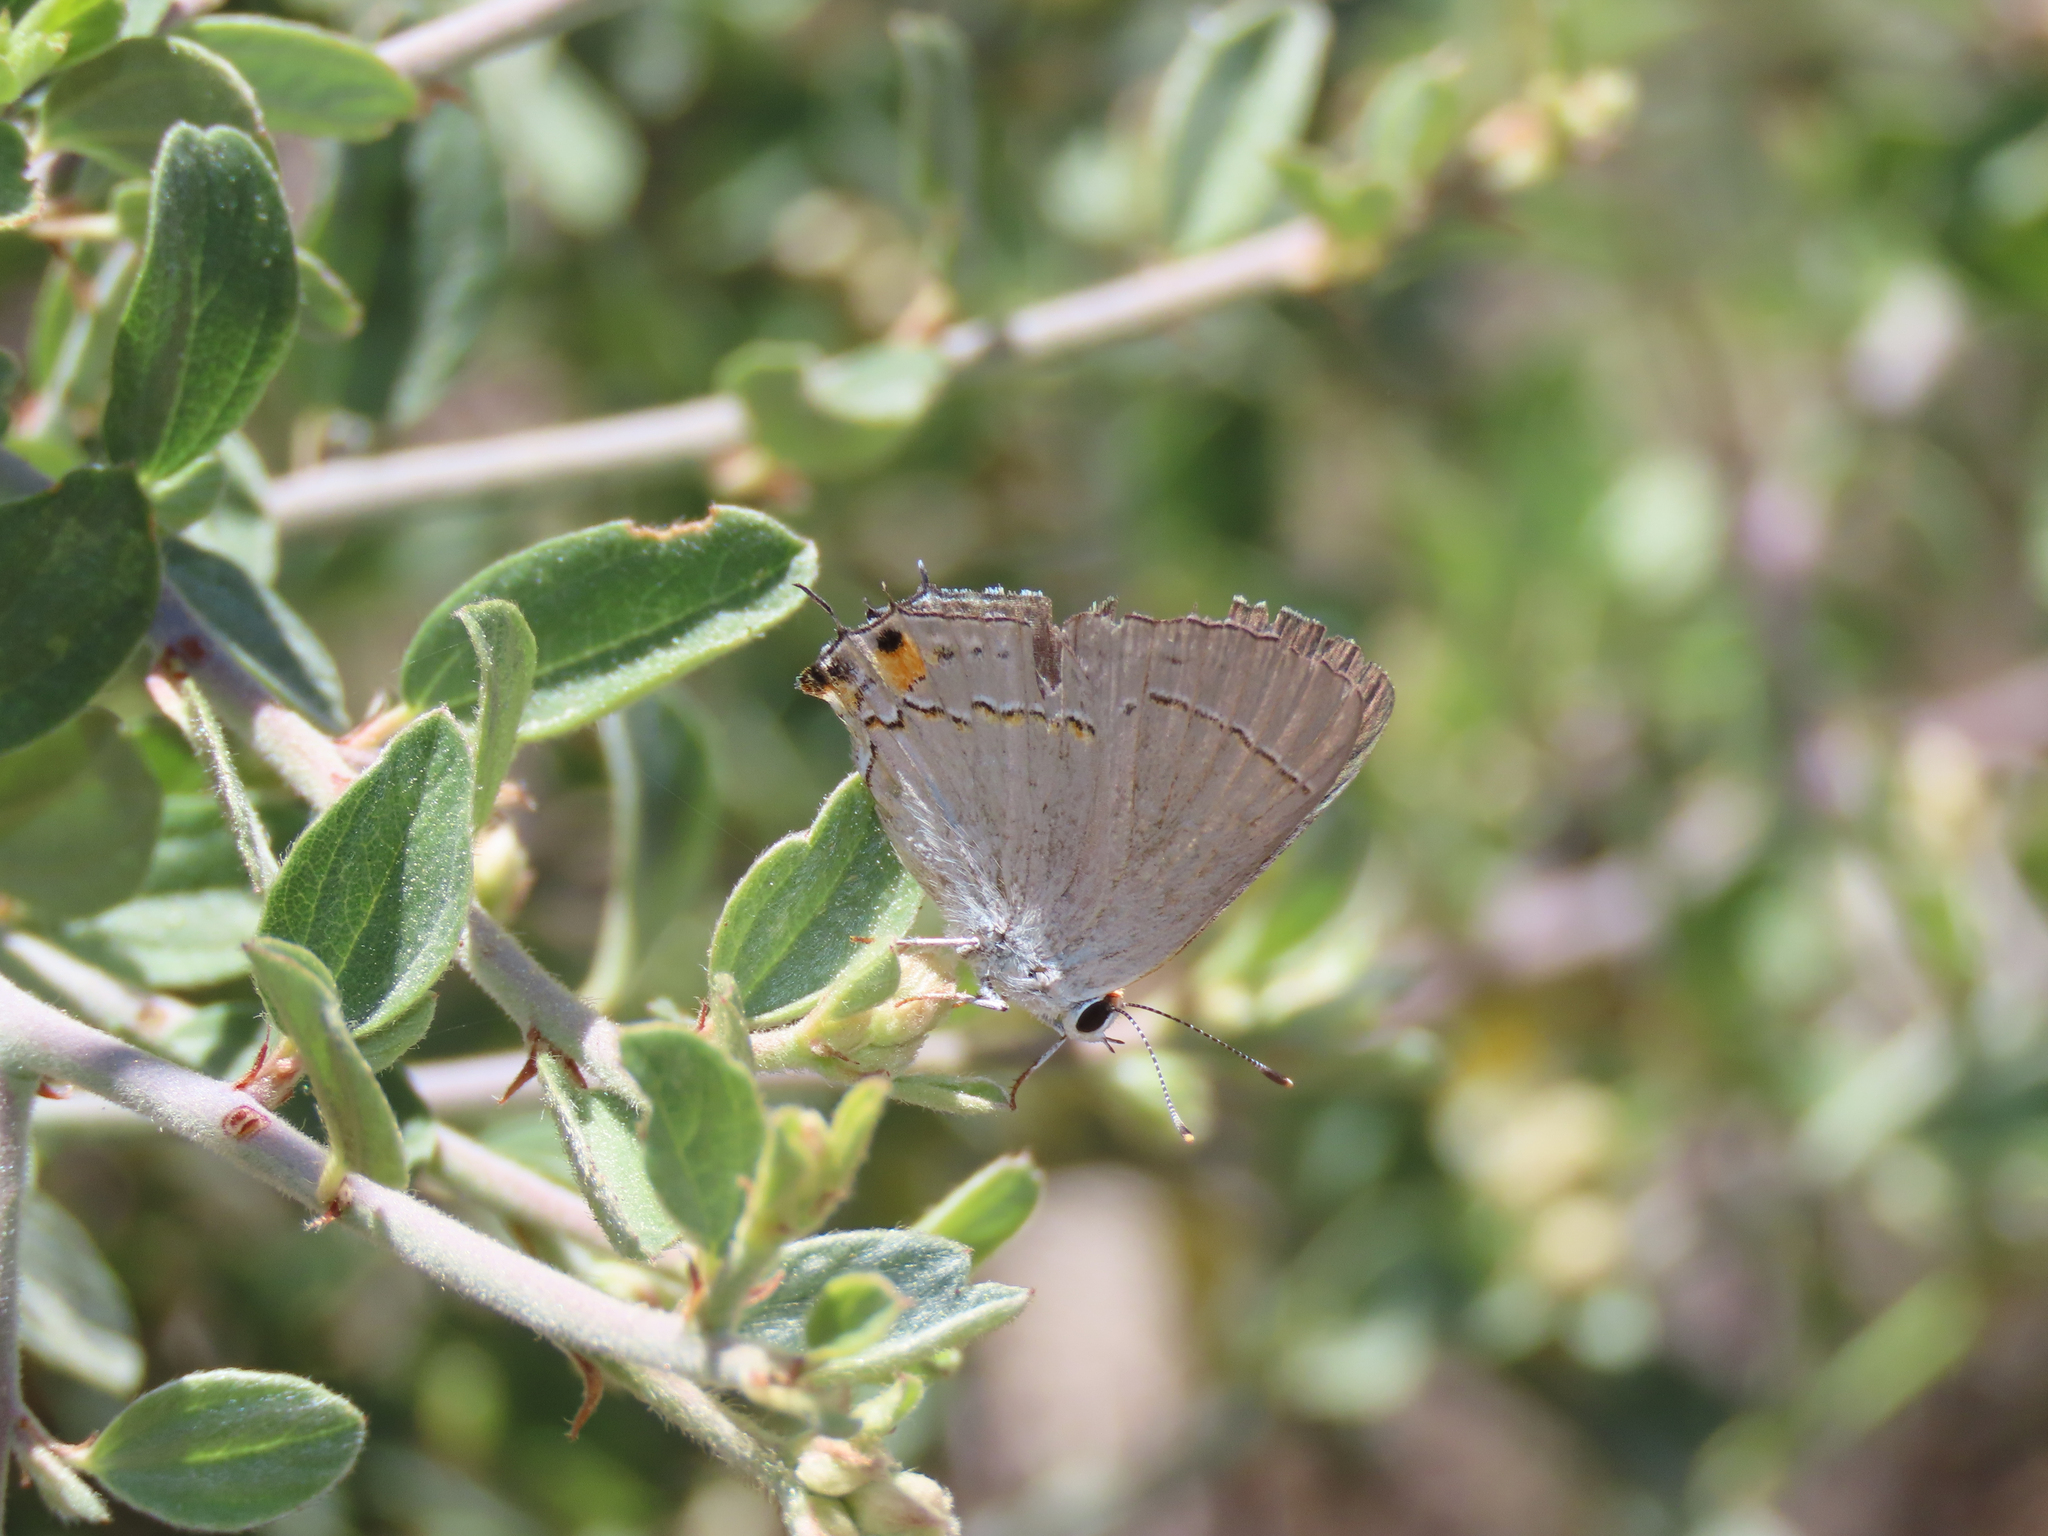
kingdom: Animalia
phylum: Arthropoda
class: Insecta
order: Lepidoptera
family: Lycaenidae
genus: Strymon
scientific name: Strymon melinus
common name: Gray hairstreak
